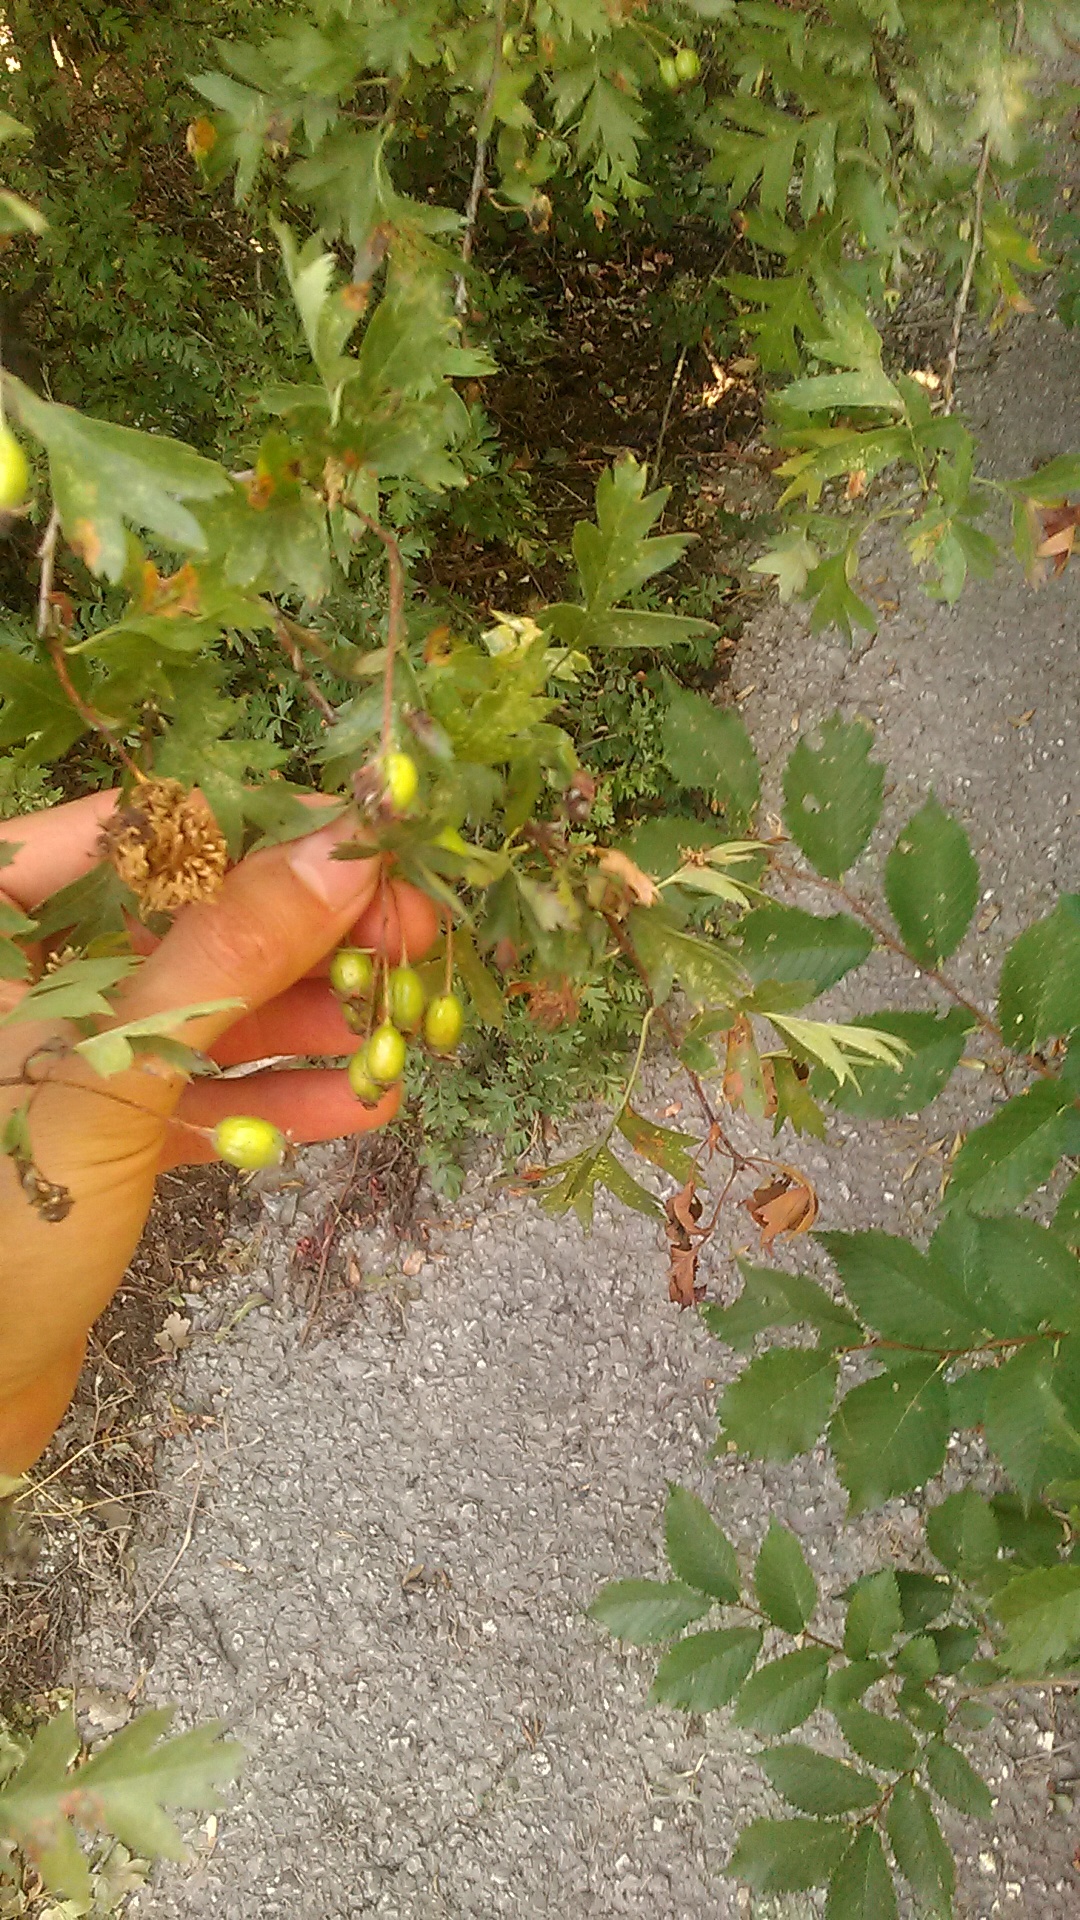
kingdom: Plantae
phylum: Tracheophyta
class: Magnoliopsida
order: Brassicales
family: Brassicaceae
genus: Diplotaxis
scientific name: Diplotaxis tenuifolia
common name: Perennial wall-rocket
